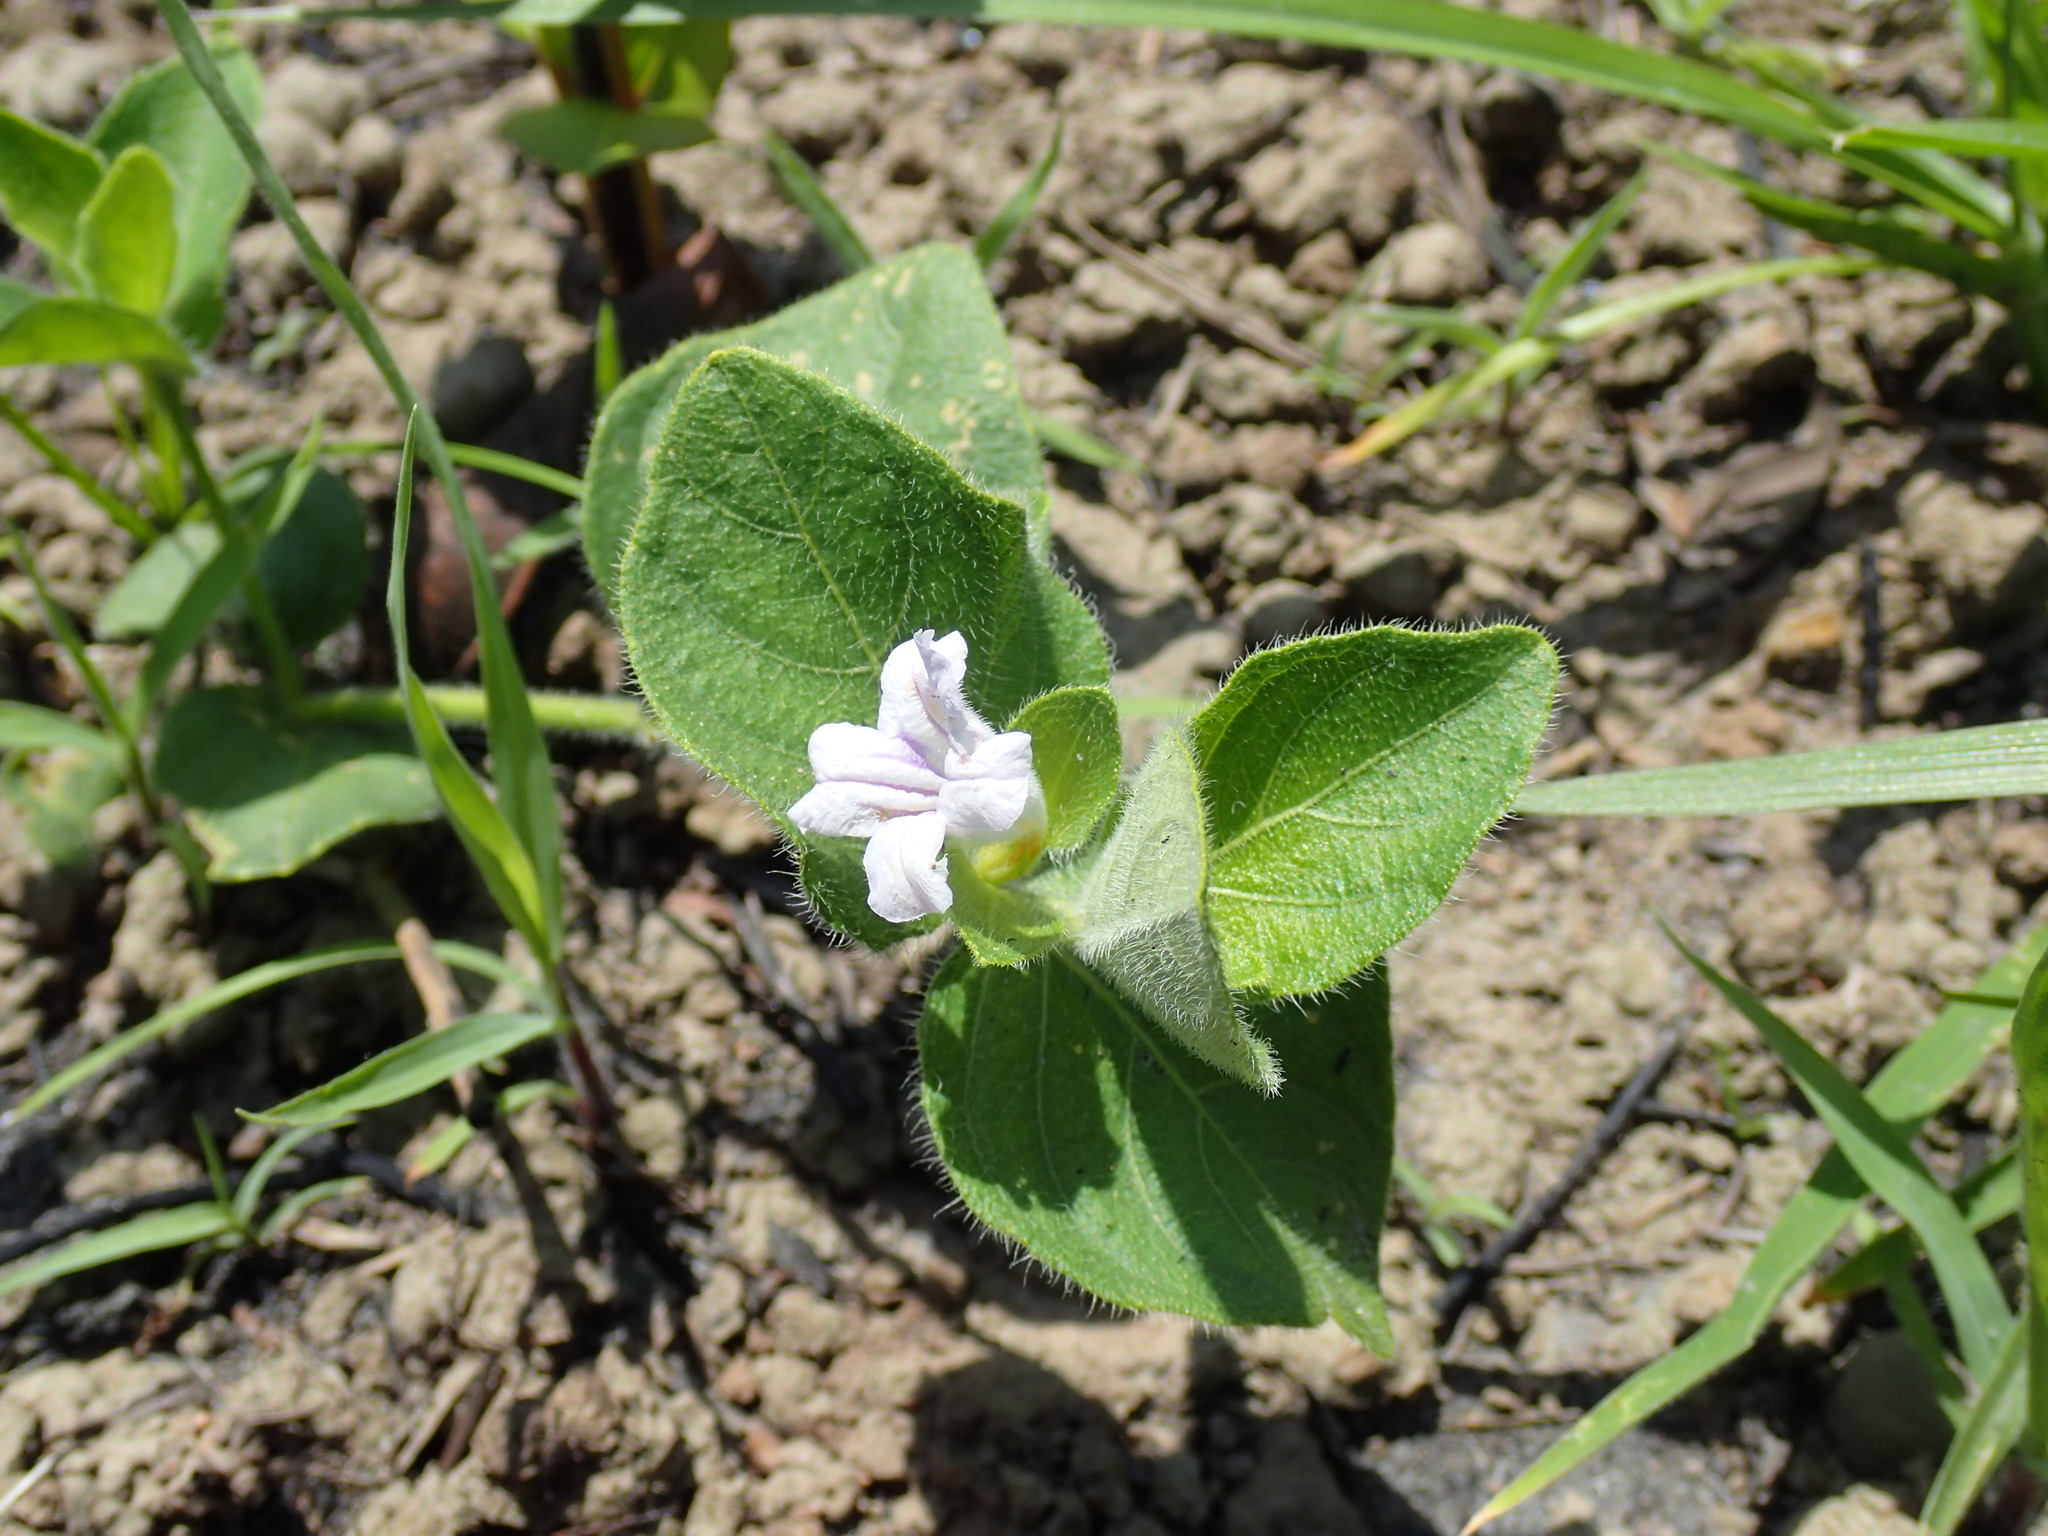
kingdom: Plantae
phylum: Tracheophyta
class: Magnoliopsida
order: Lamiales
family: Acanthaceae
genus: Ruellia
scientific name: Ruellia cordata
